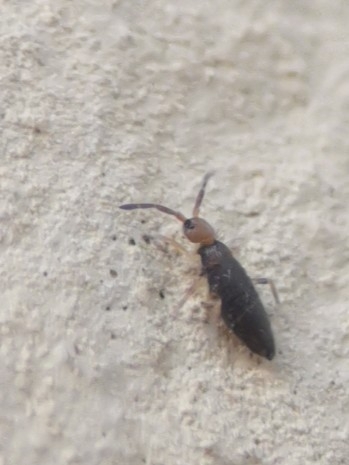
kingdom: Animalia
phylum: Arthropoda
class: Collembola
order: Entomobryomorpha
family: Entomobryidae
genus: Willowsia
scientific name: Willowsia buski
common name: Damp grain springtail
